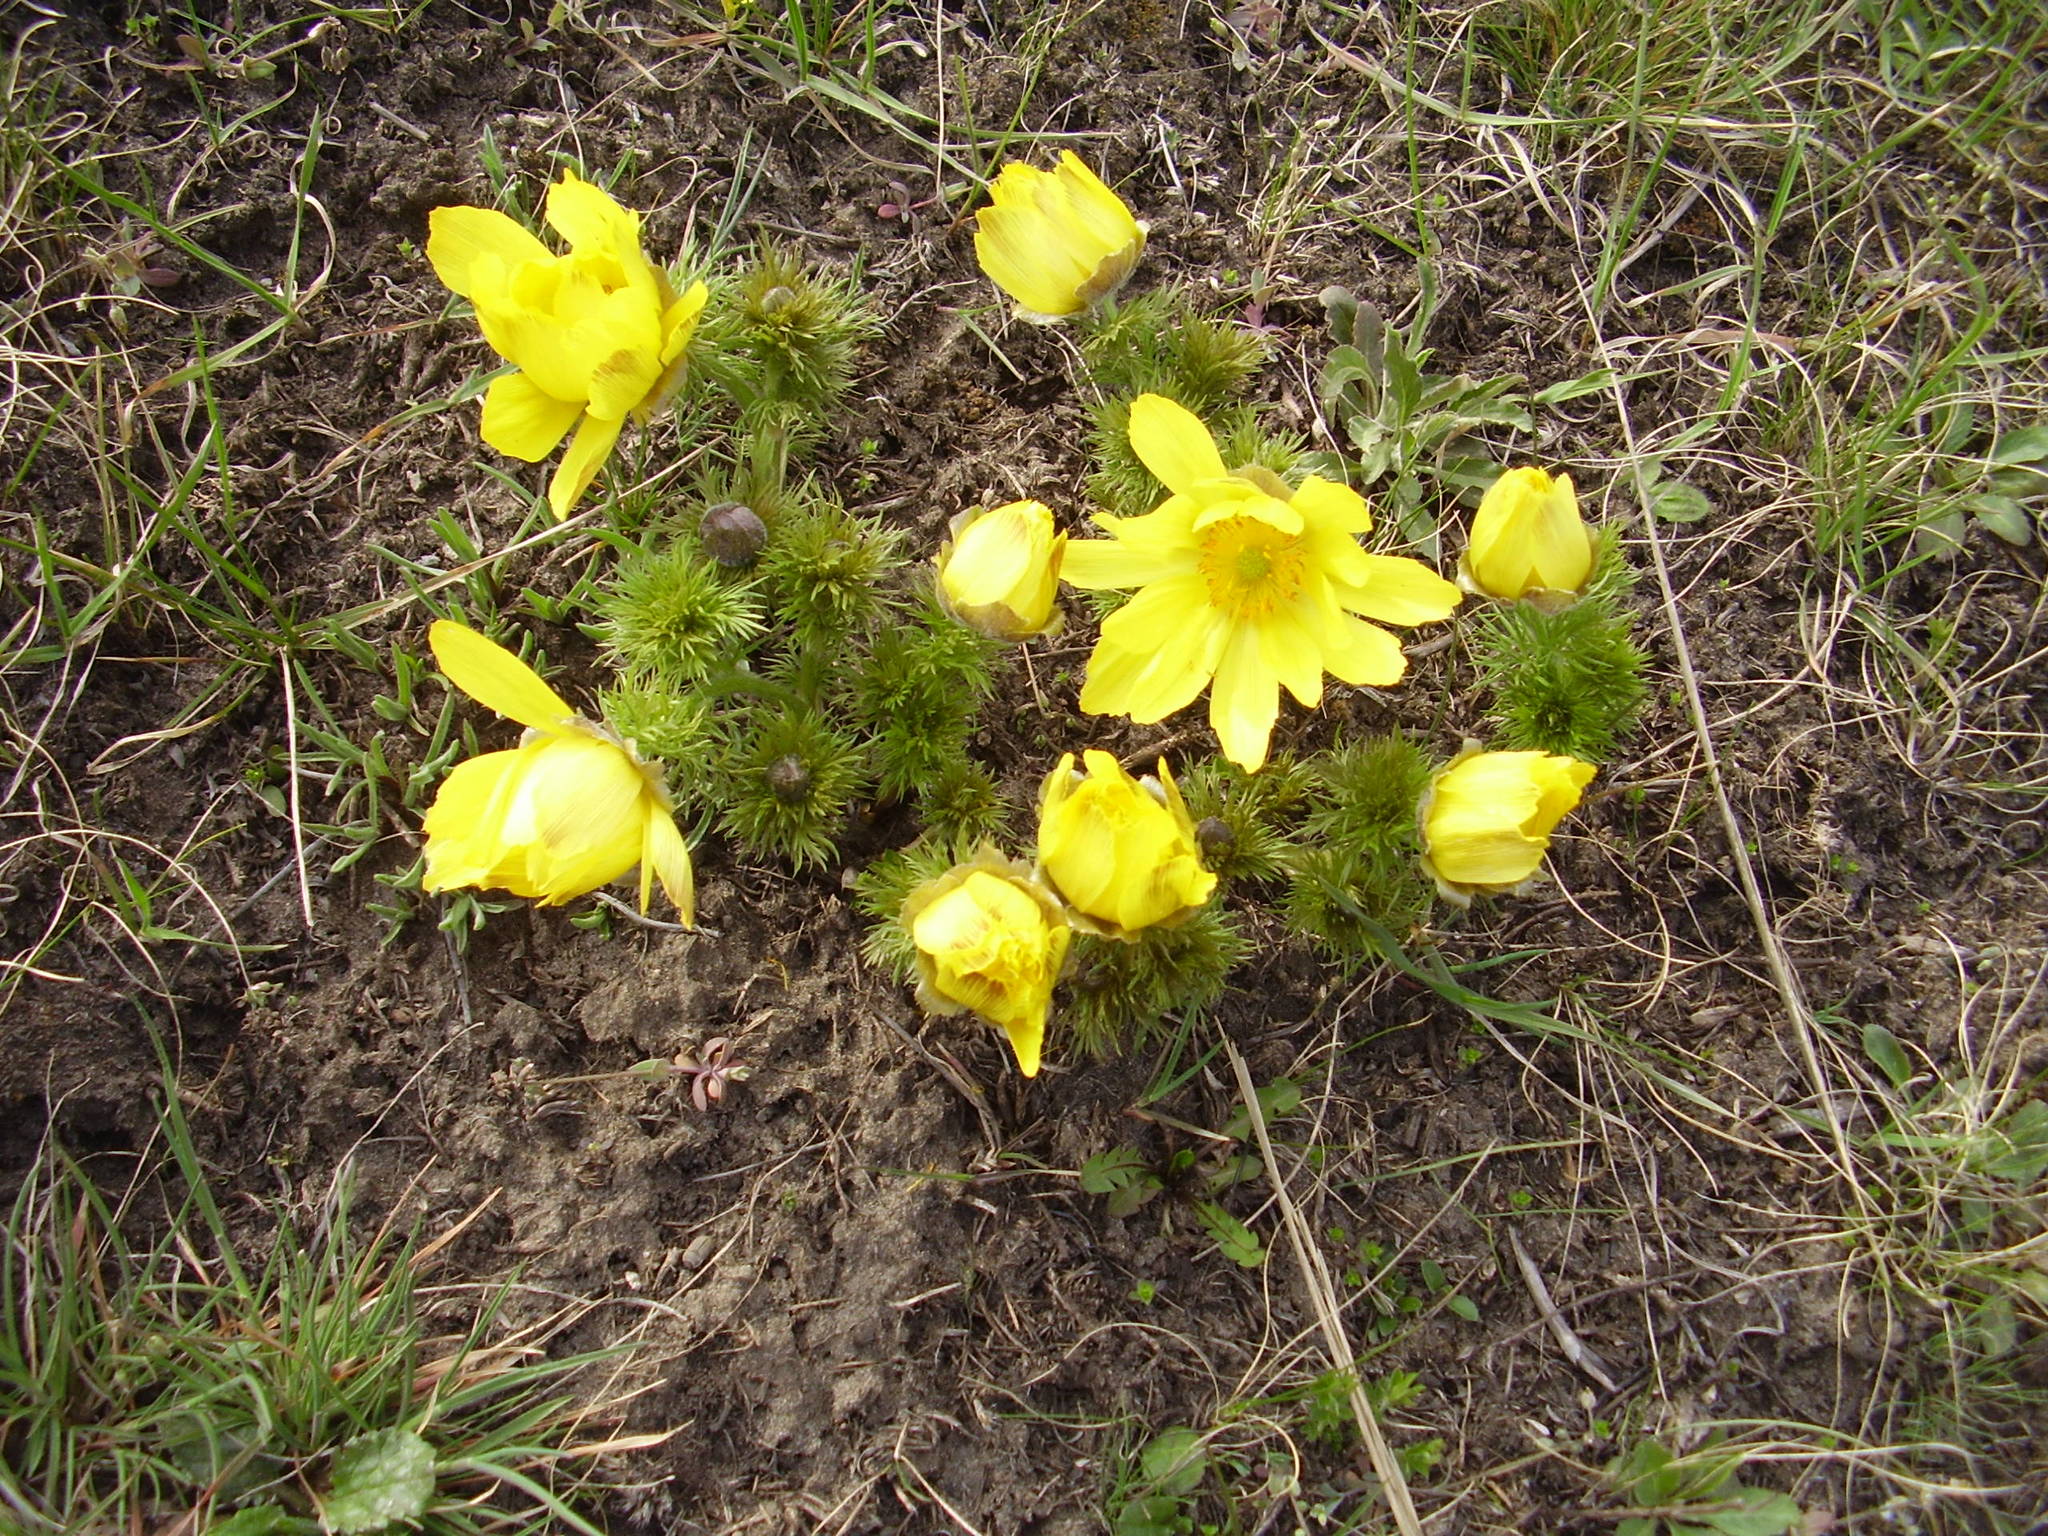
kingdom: Plantae
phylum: Tracheophyta
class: Magnoliopsida
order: Ranunculales
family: Ranunculaceae
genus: Adonis
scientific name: Adonis vernalis
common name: Yellow pheasants-eye
